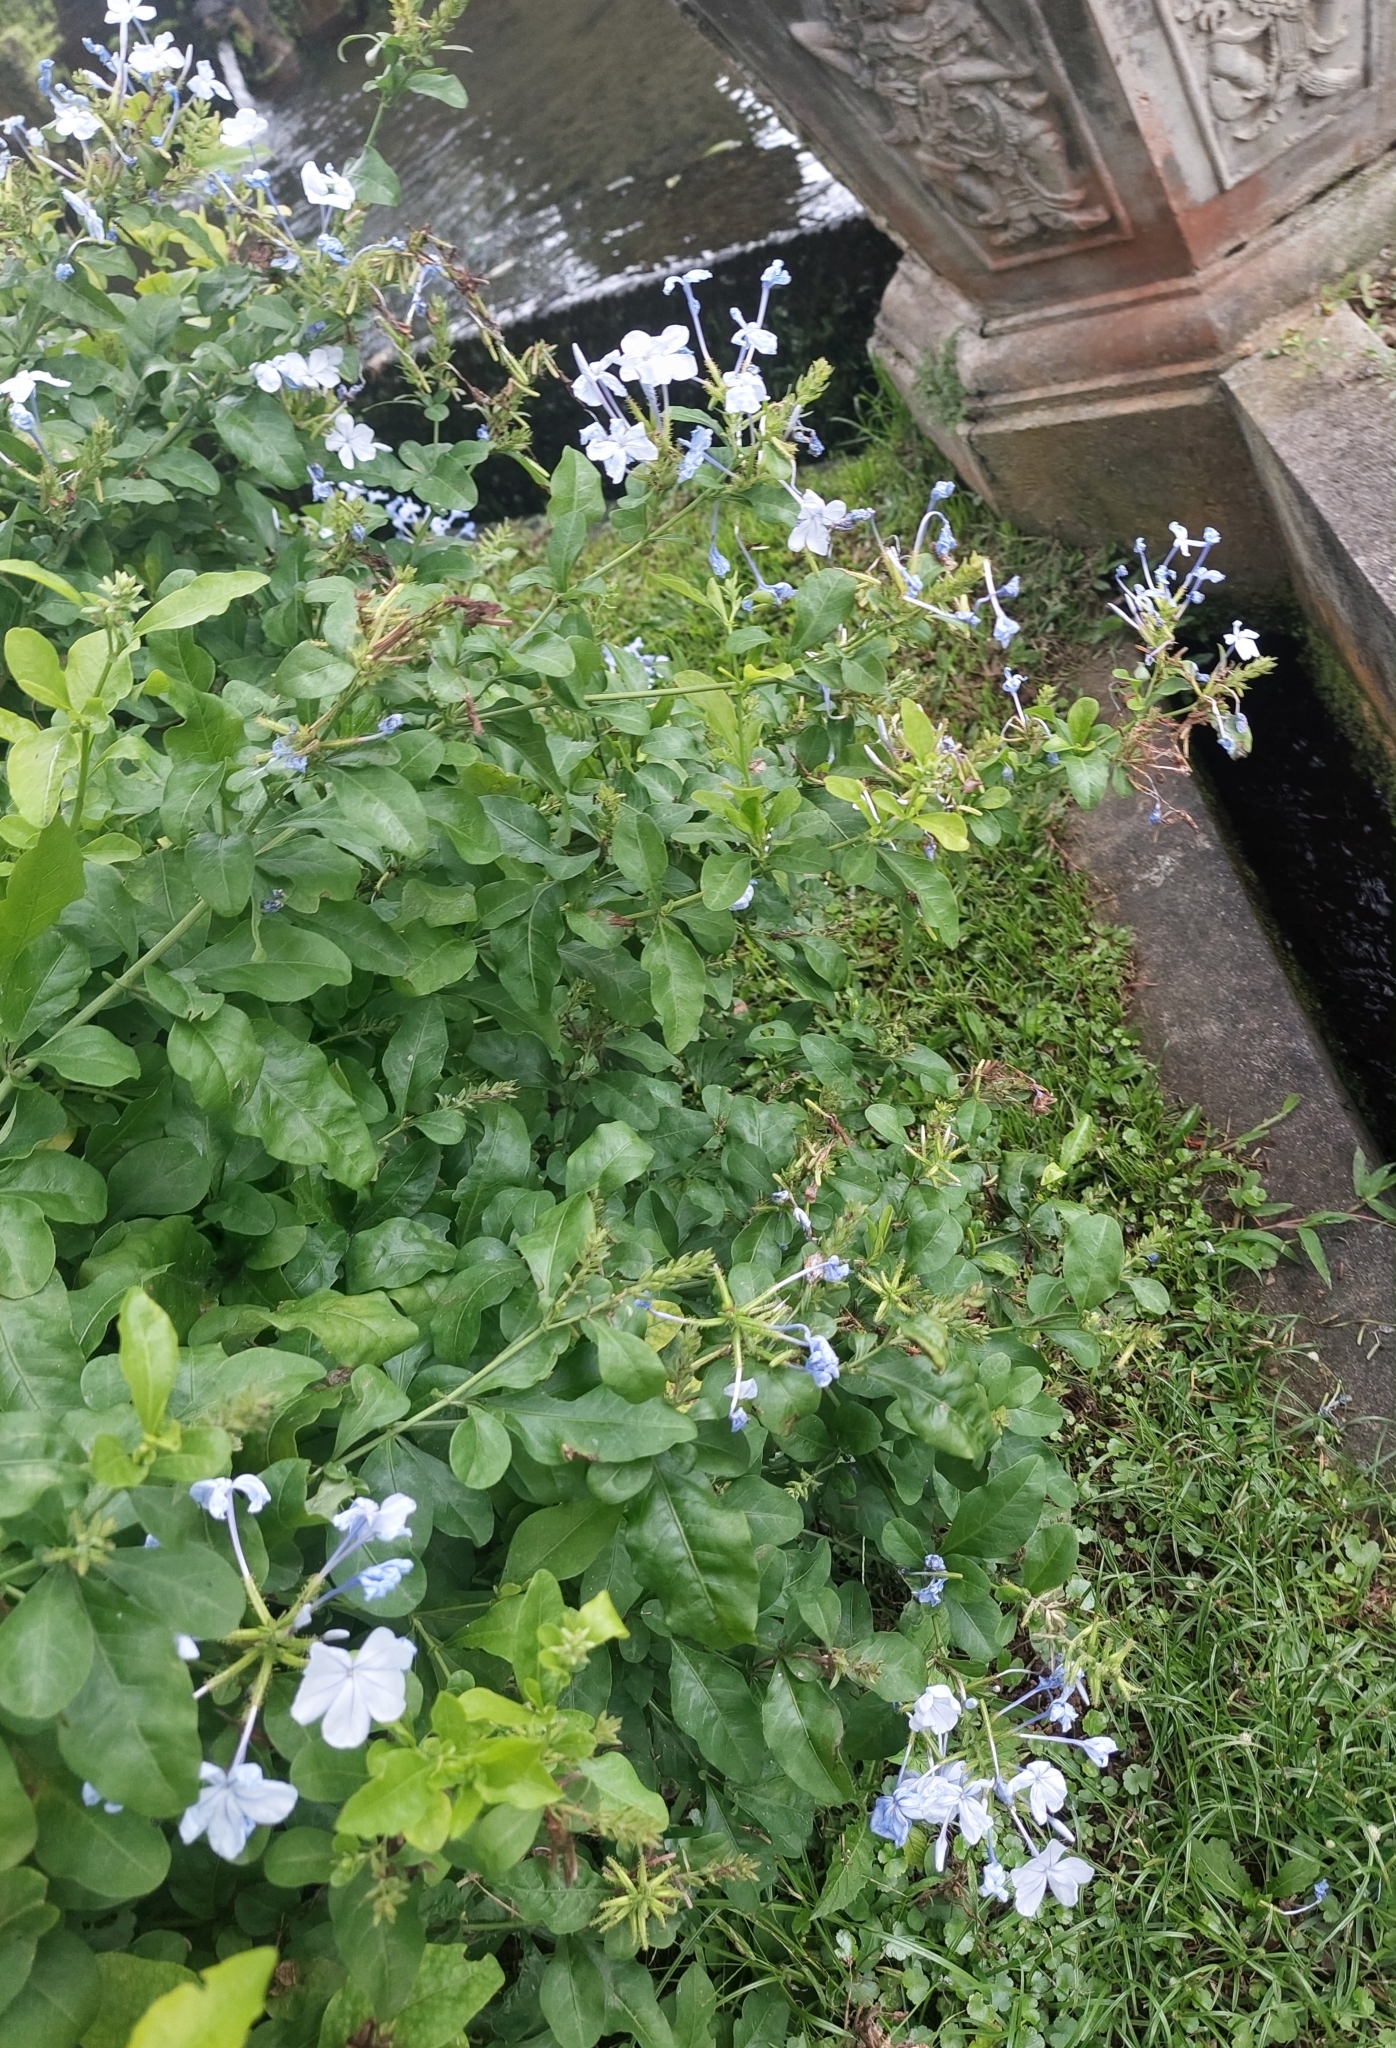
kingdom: Plantae
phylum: Tracheophyta
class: Magnoliopsida
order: Caryophyllales
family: Plumbaginaceae
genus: Plumbago
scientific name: Plumbago auriculata
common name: Cape leadwort
